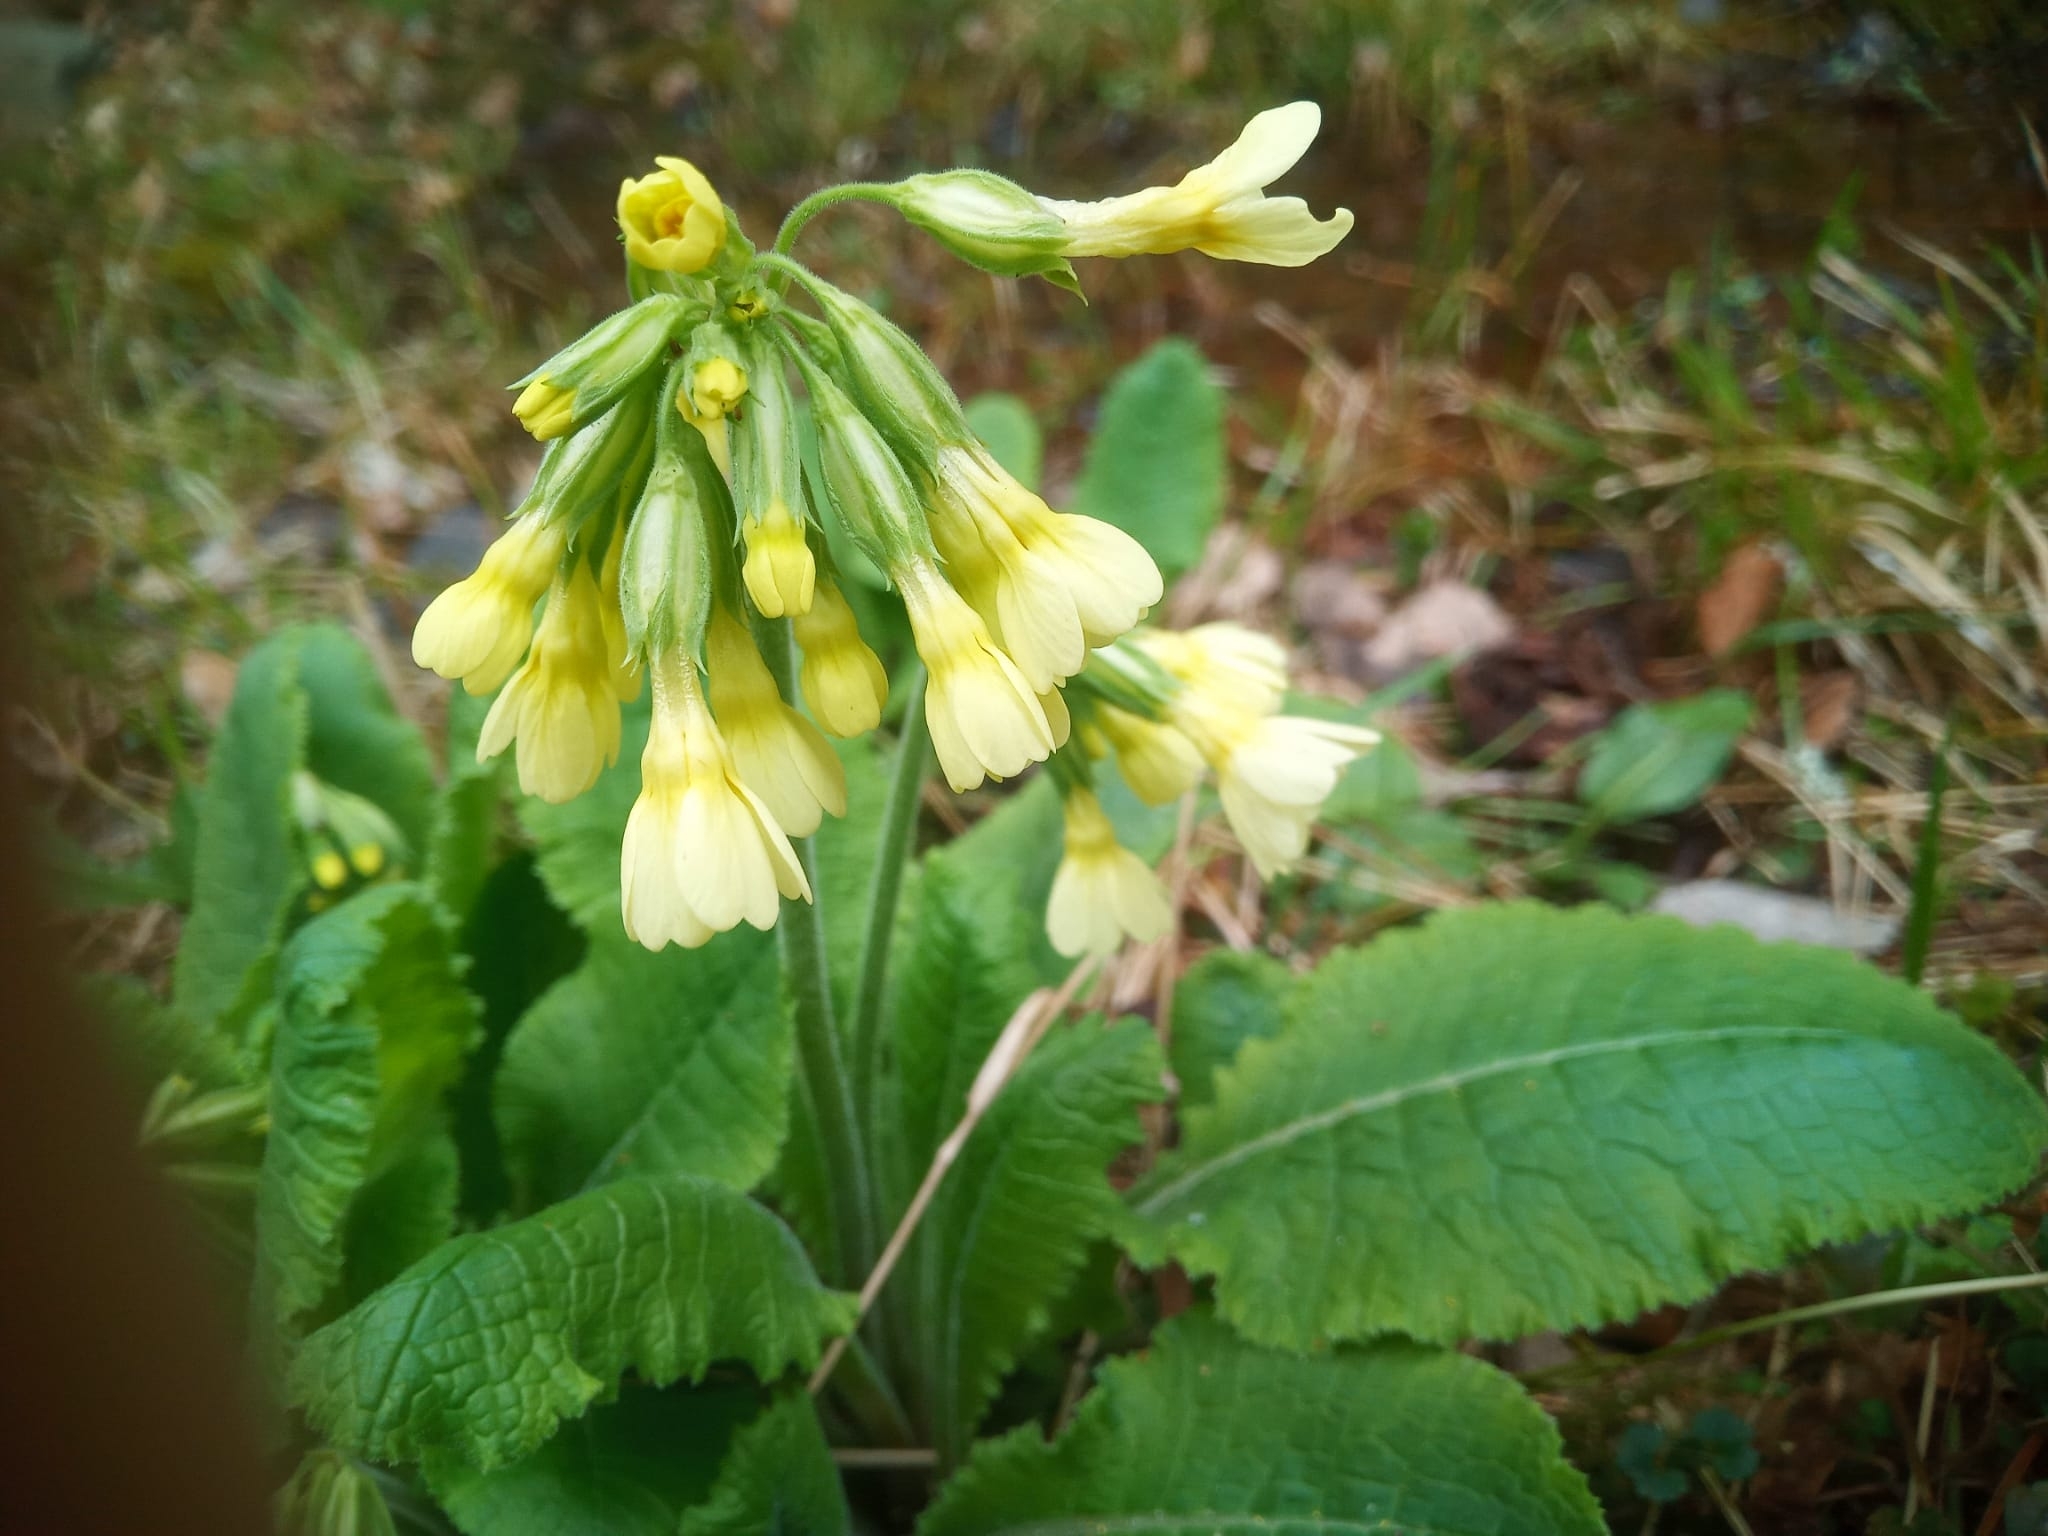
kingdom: Plantae
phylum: Tracheophyta
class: Magnoliopsida
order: Ericales
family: Primulaceae
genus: Primula
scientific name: Primula elatior
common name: Oxlip
